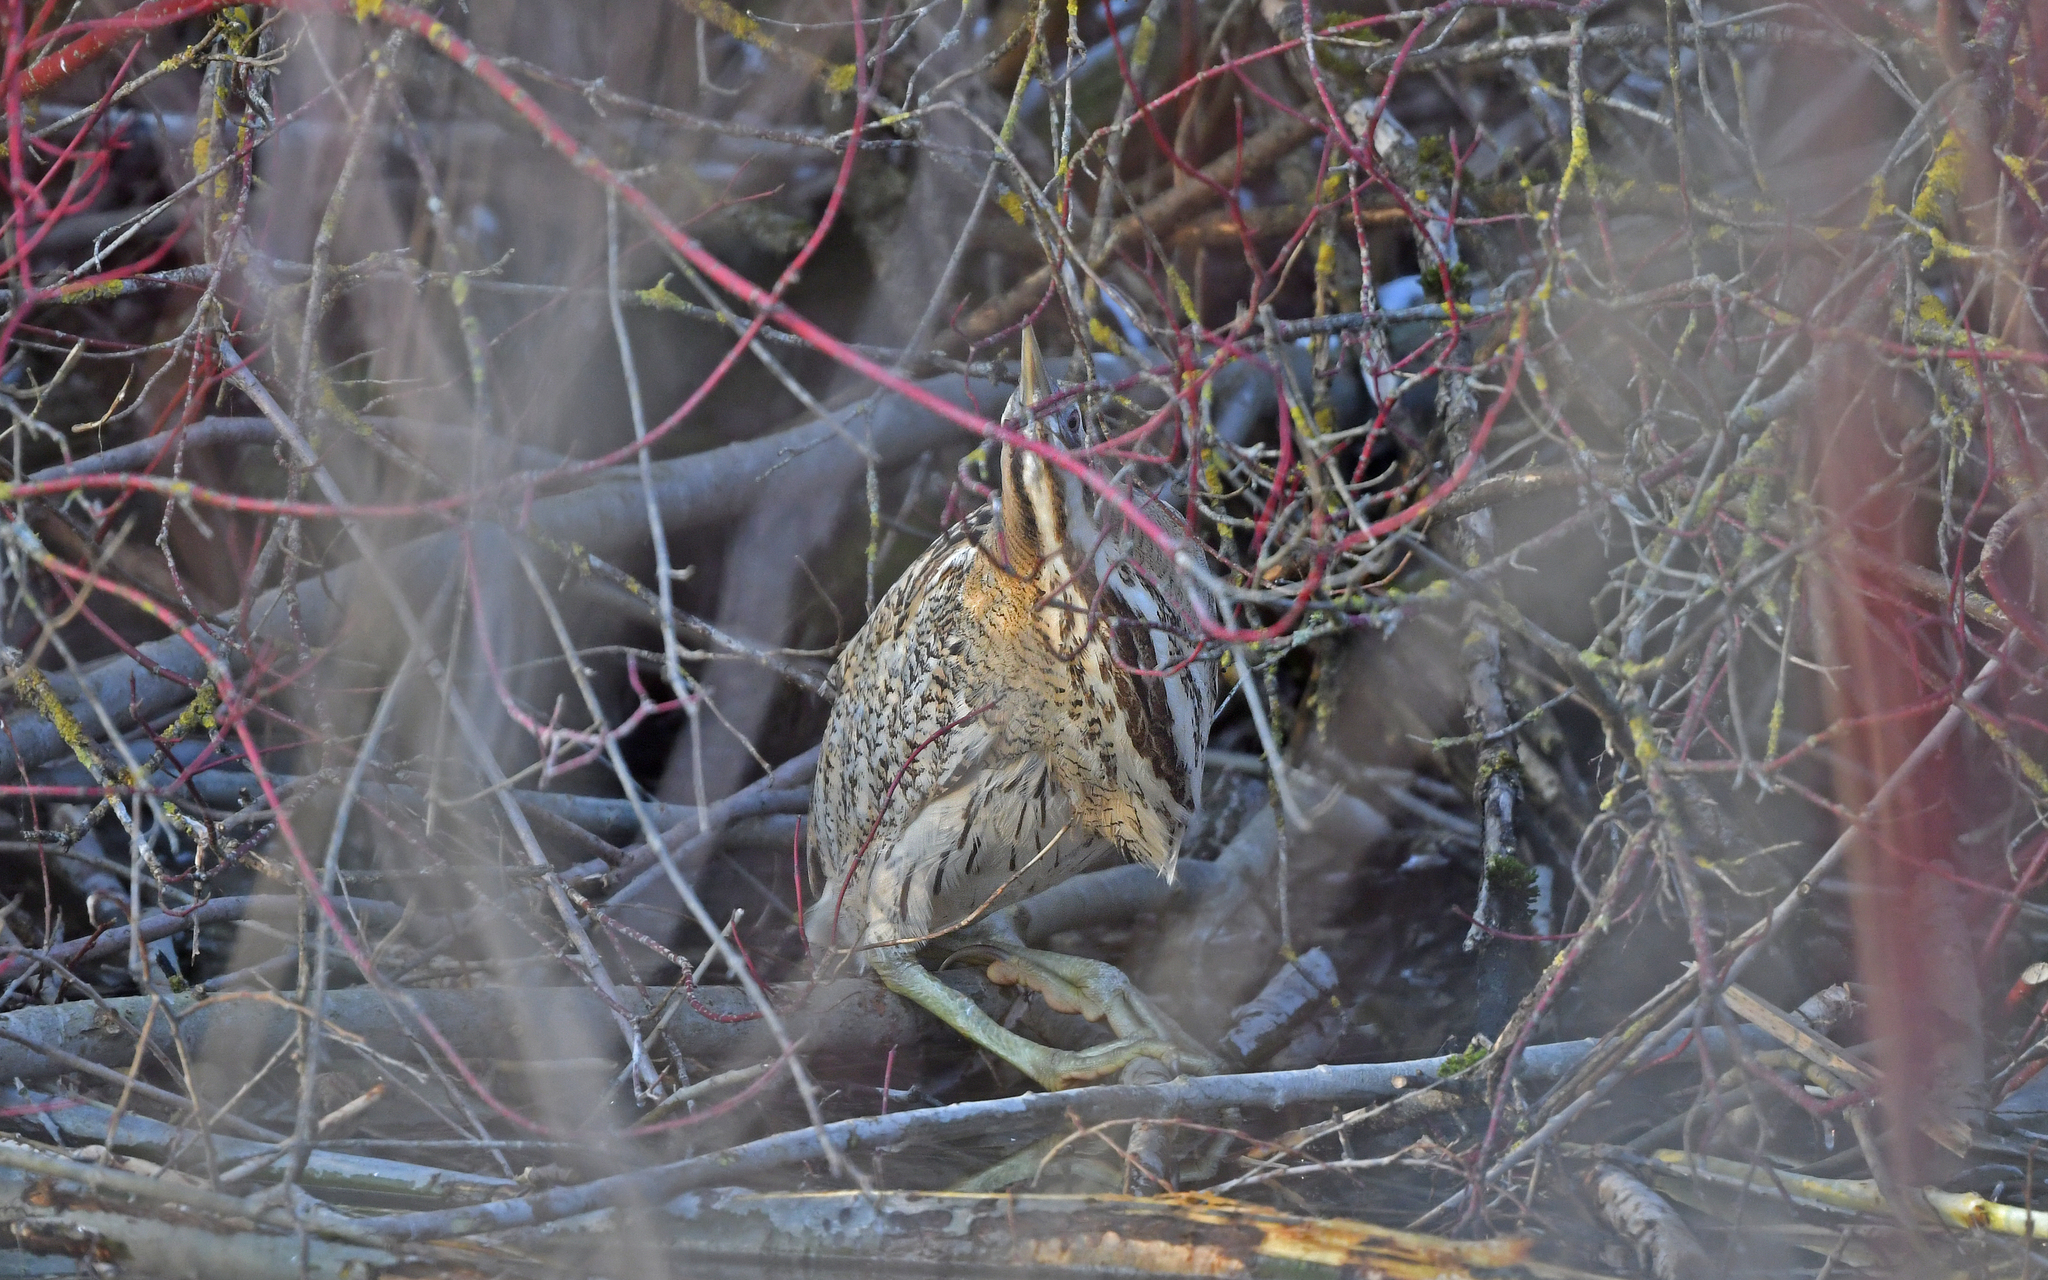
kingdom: Animalia
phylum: Chordata
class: Aves
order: Pelecaniformes
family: Ardeidae
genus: Botaurus
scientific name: Botaurus stellaris
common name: Eurasian bittern
